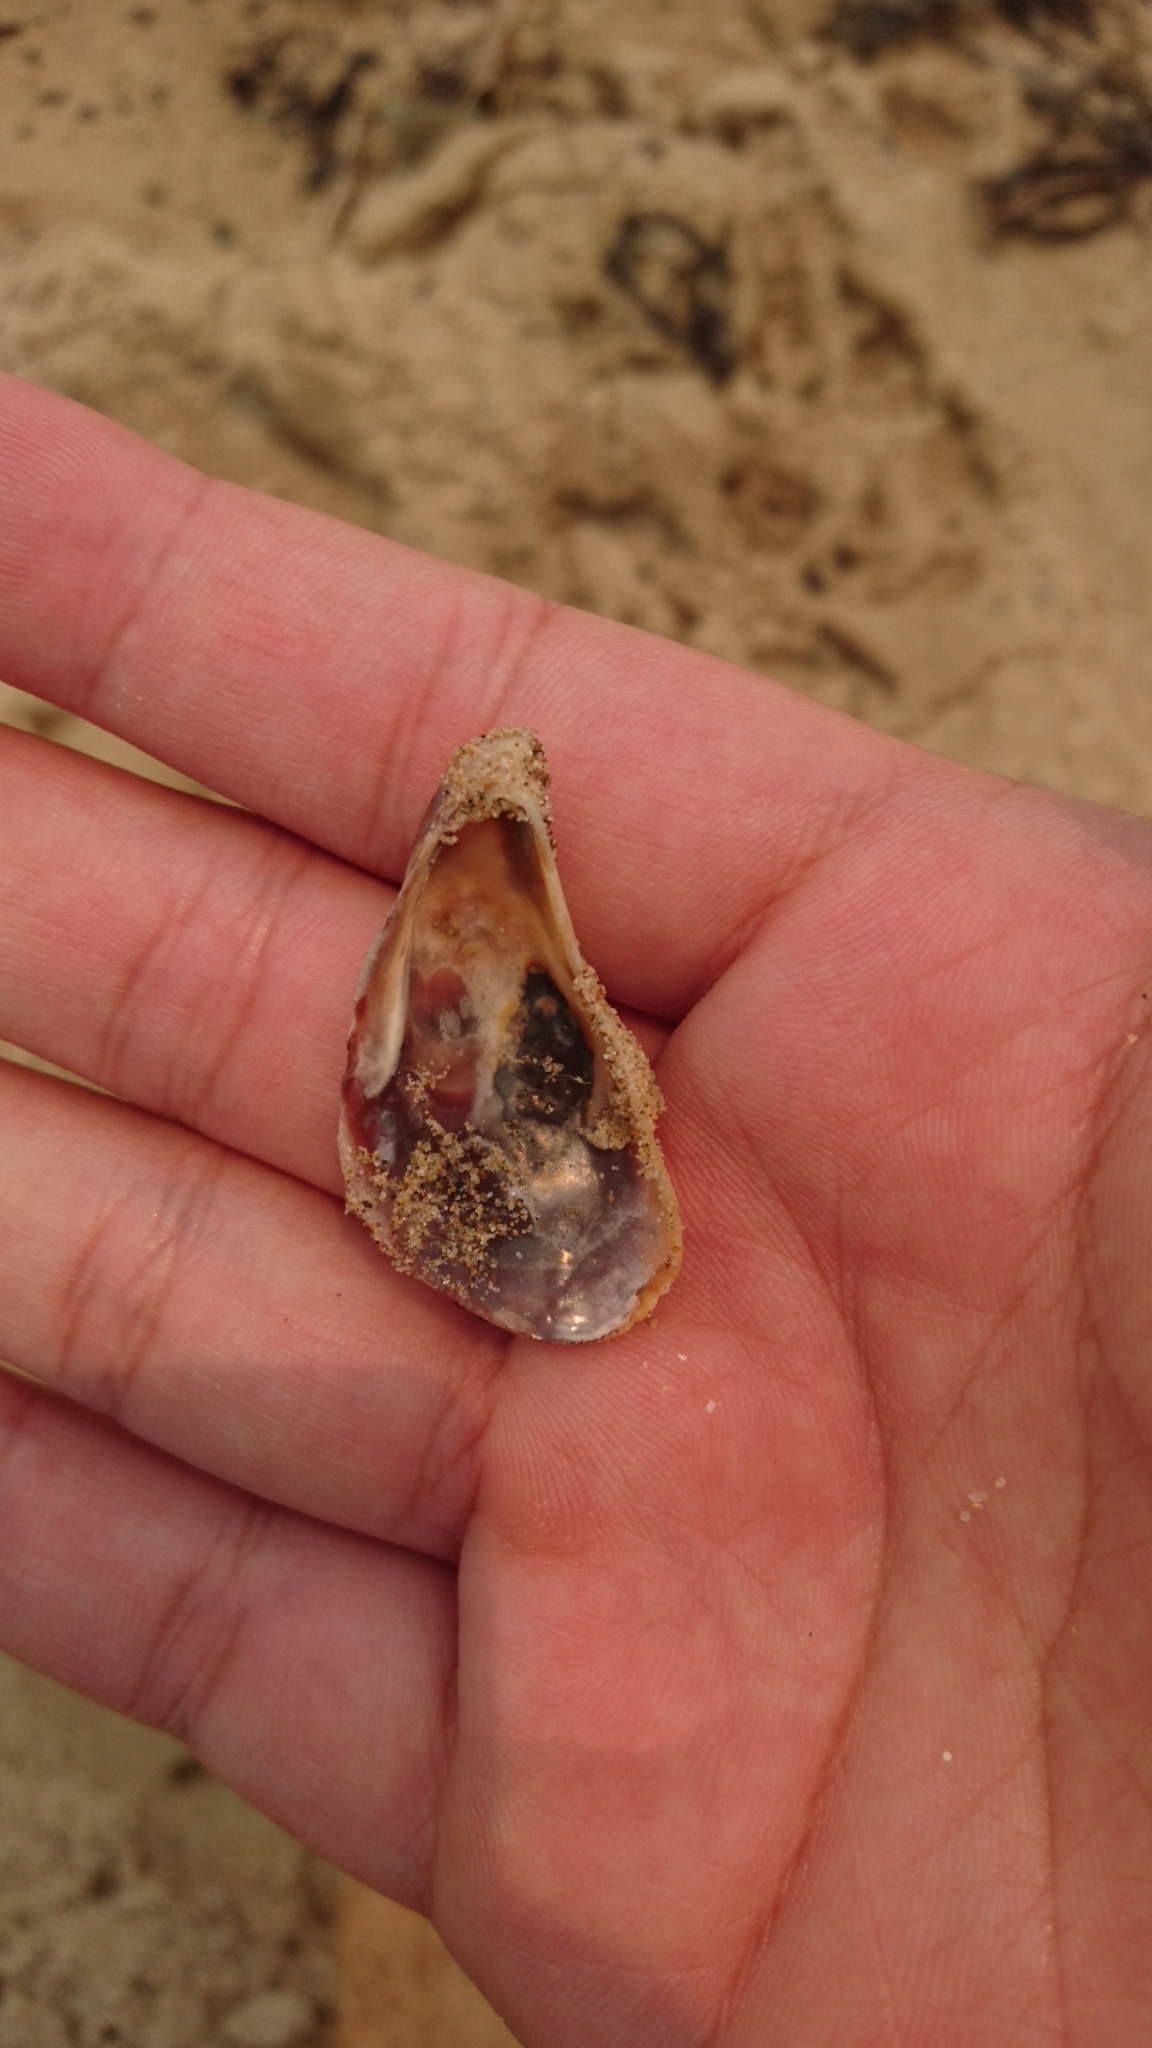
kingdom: Animalia
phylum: Mollusca
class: Bivalvia
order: Mytilida
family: Mytilidae
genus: Trichomya
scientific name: Trichomya hirsuta
